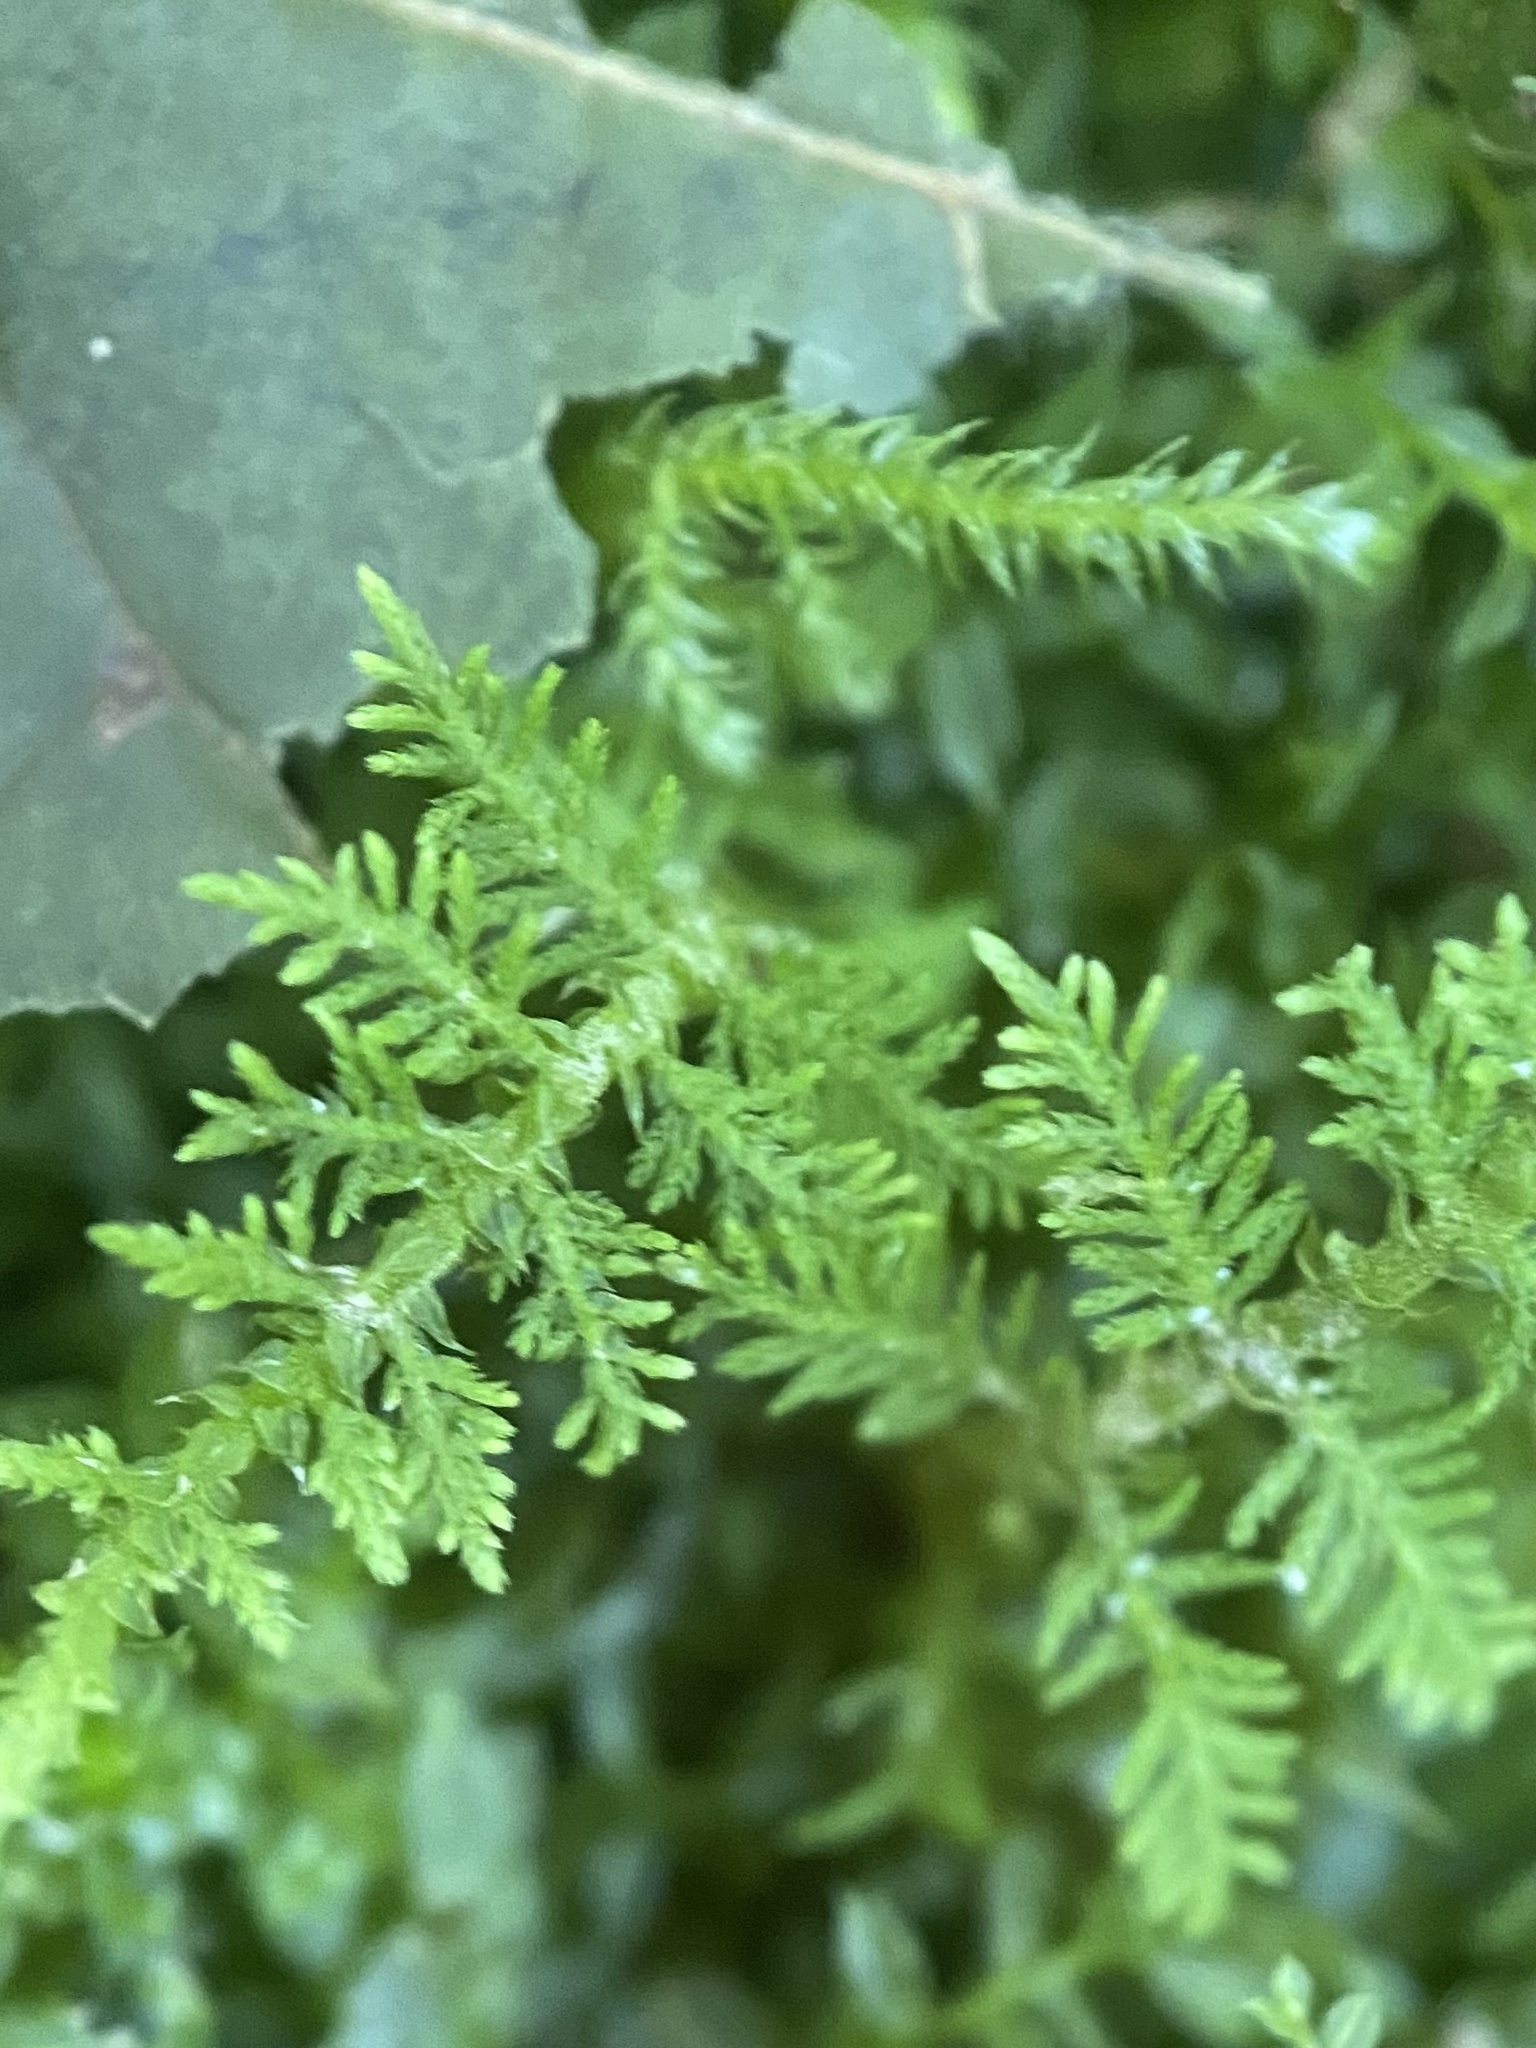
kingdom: Plantae
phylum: Bryophyta
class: Bryopsida
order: Hypnales
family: Thuidiaceae
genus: Thuidium
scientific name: Thuidium delicatulum
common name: Delicate fern moss
